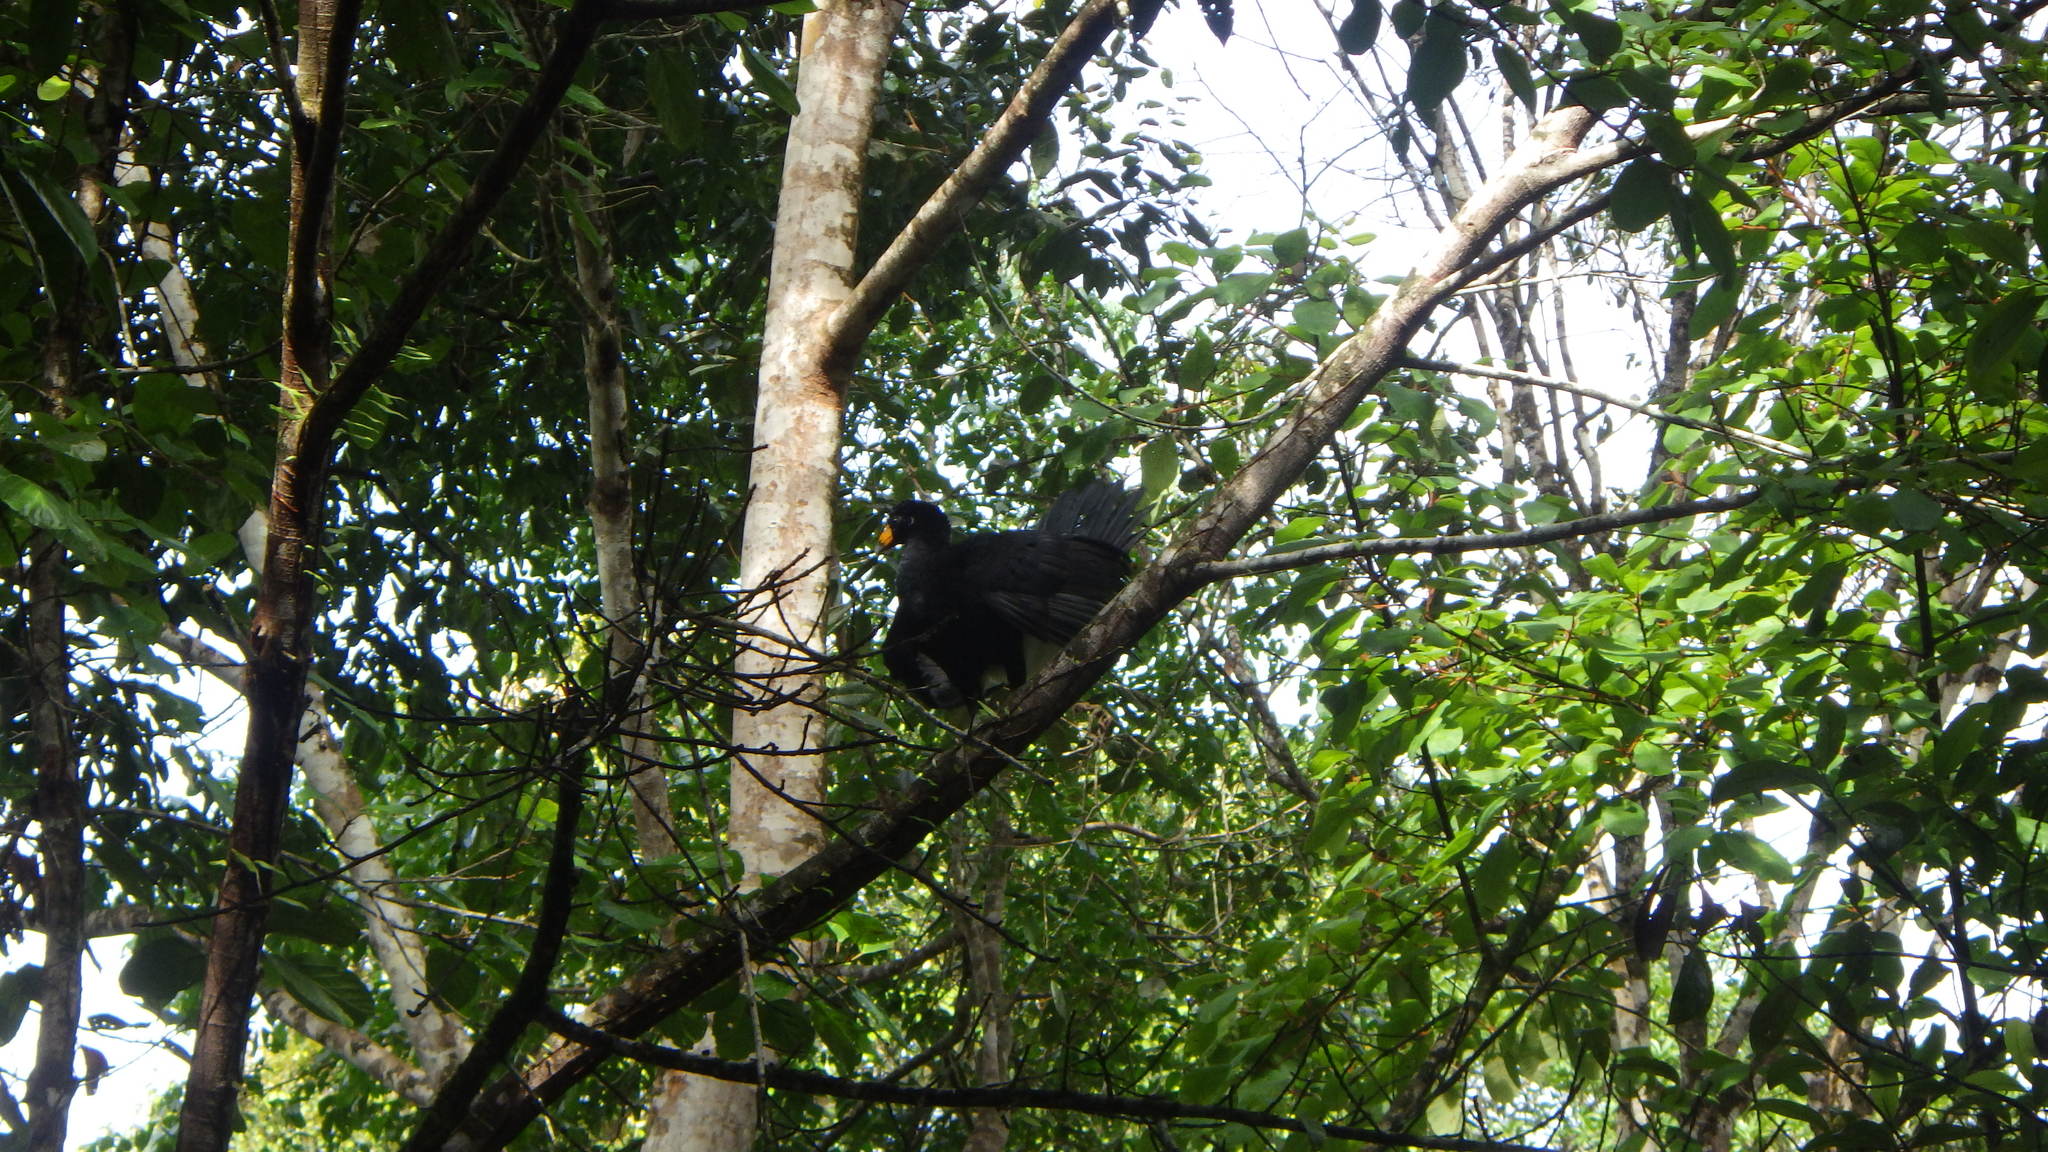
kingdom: Animalia
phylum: Chordata
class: Aves
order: Galliformes
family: Cracidae
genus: Crax
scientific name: Crax alector
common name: Black curassow
